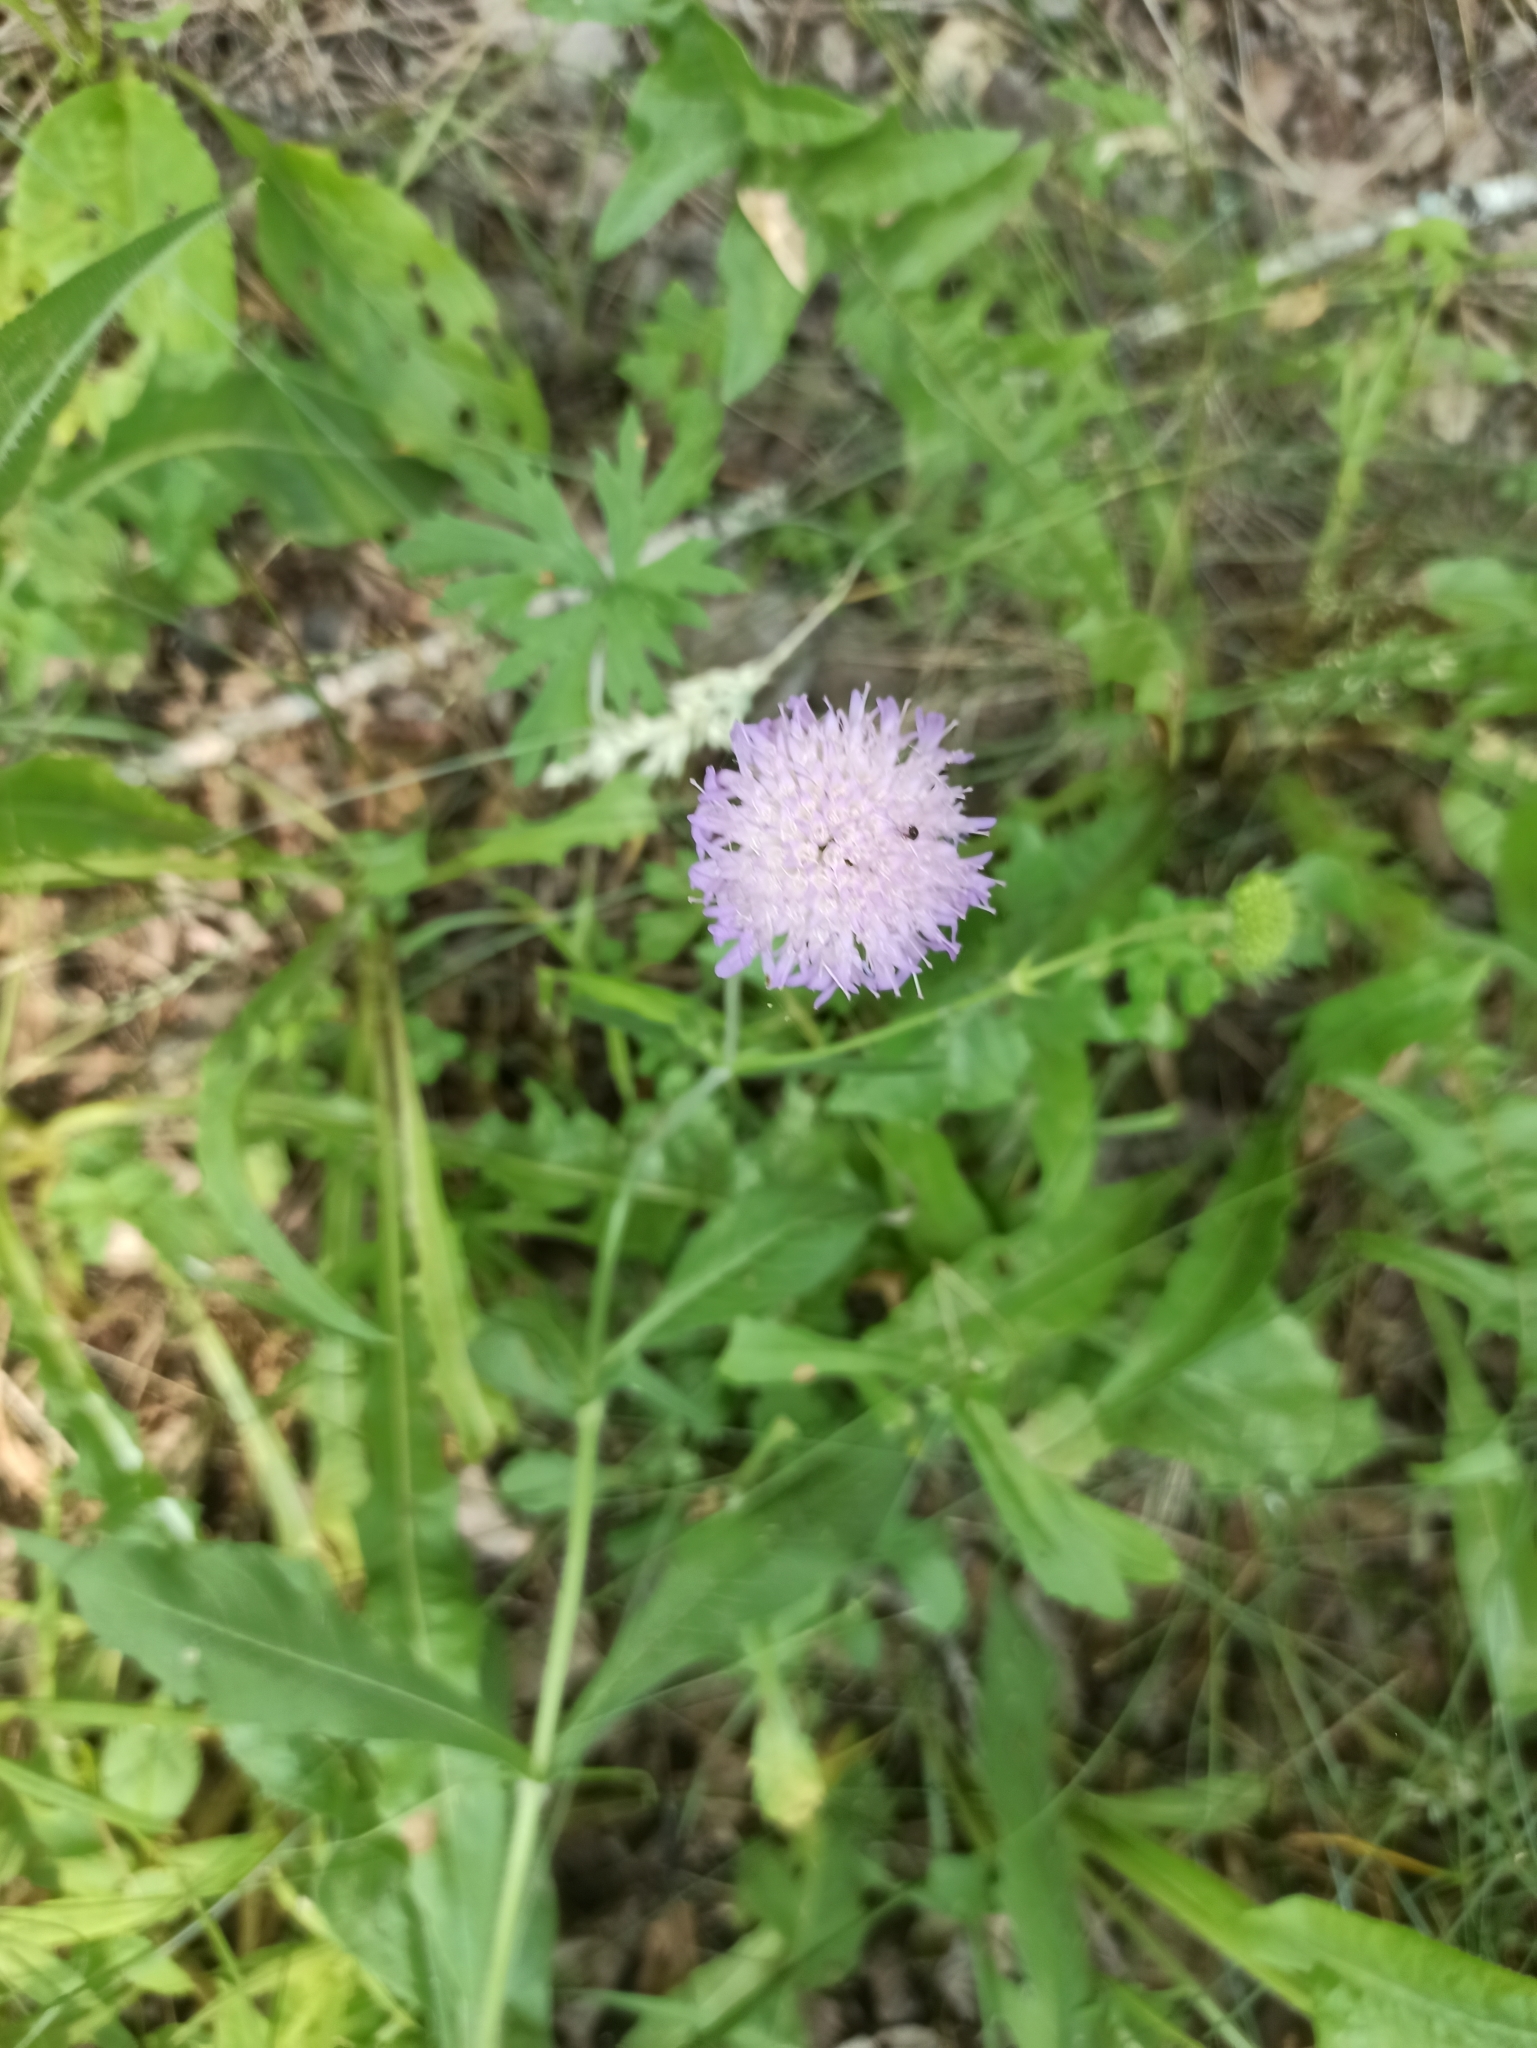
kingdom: Plantae
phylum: Tracheophyta
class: Magnoliopsida
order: Dipsacales
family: Caprifoliaceae
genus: Knautia
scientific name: Knautia arvensis
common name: Field scabiosa
